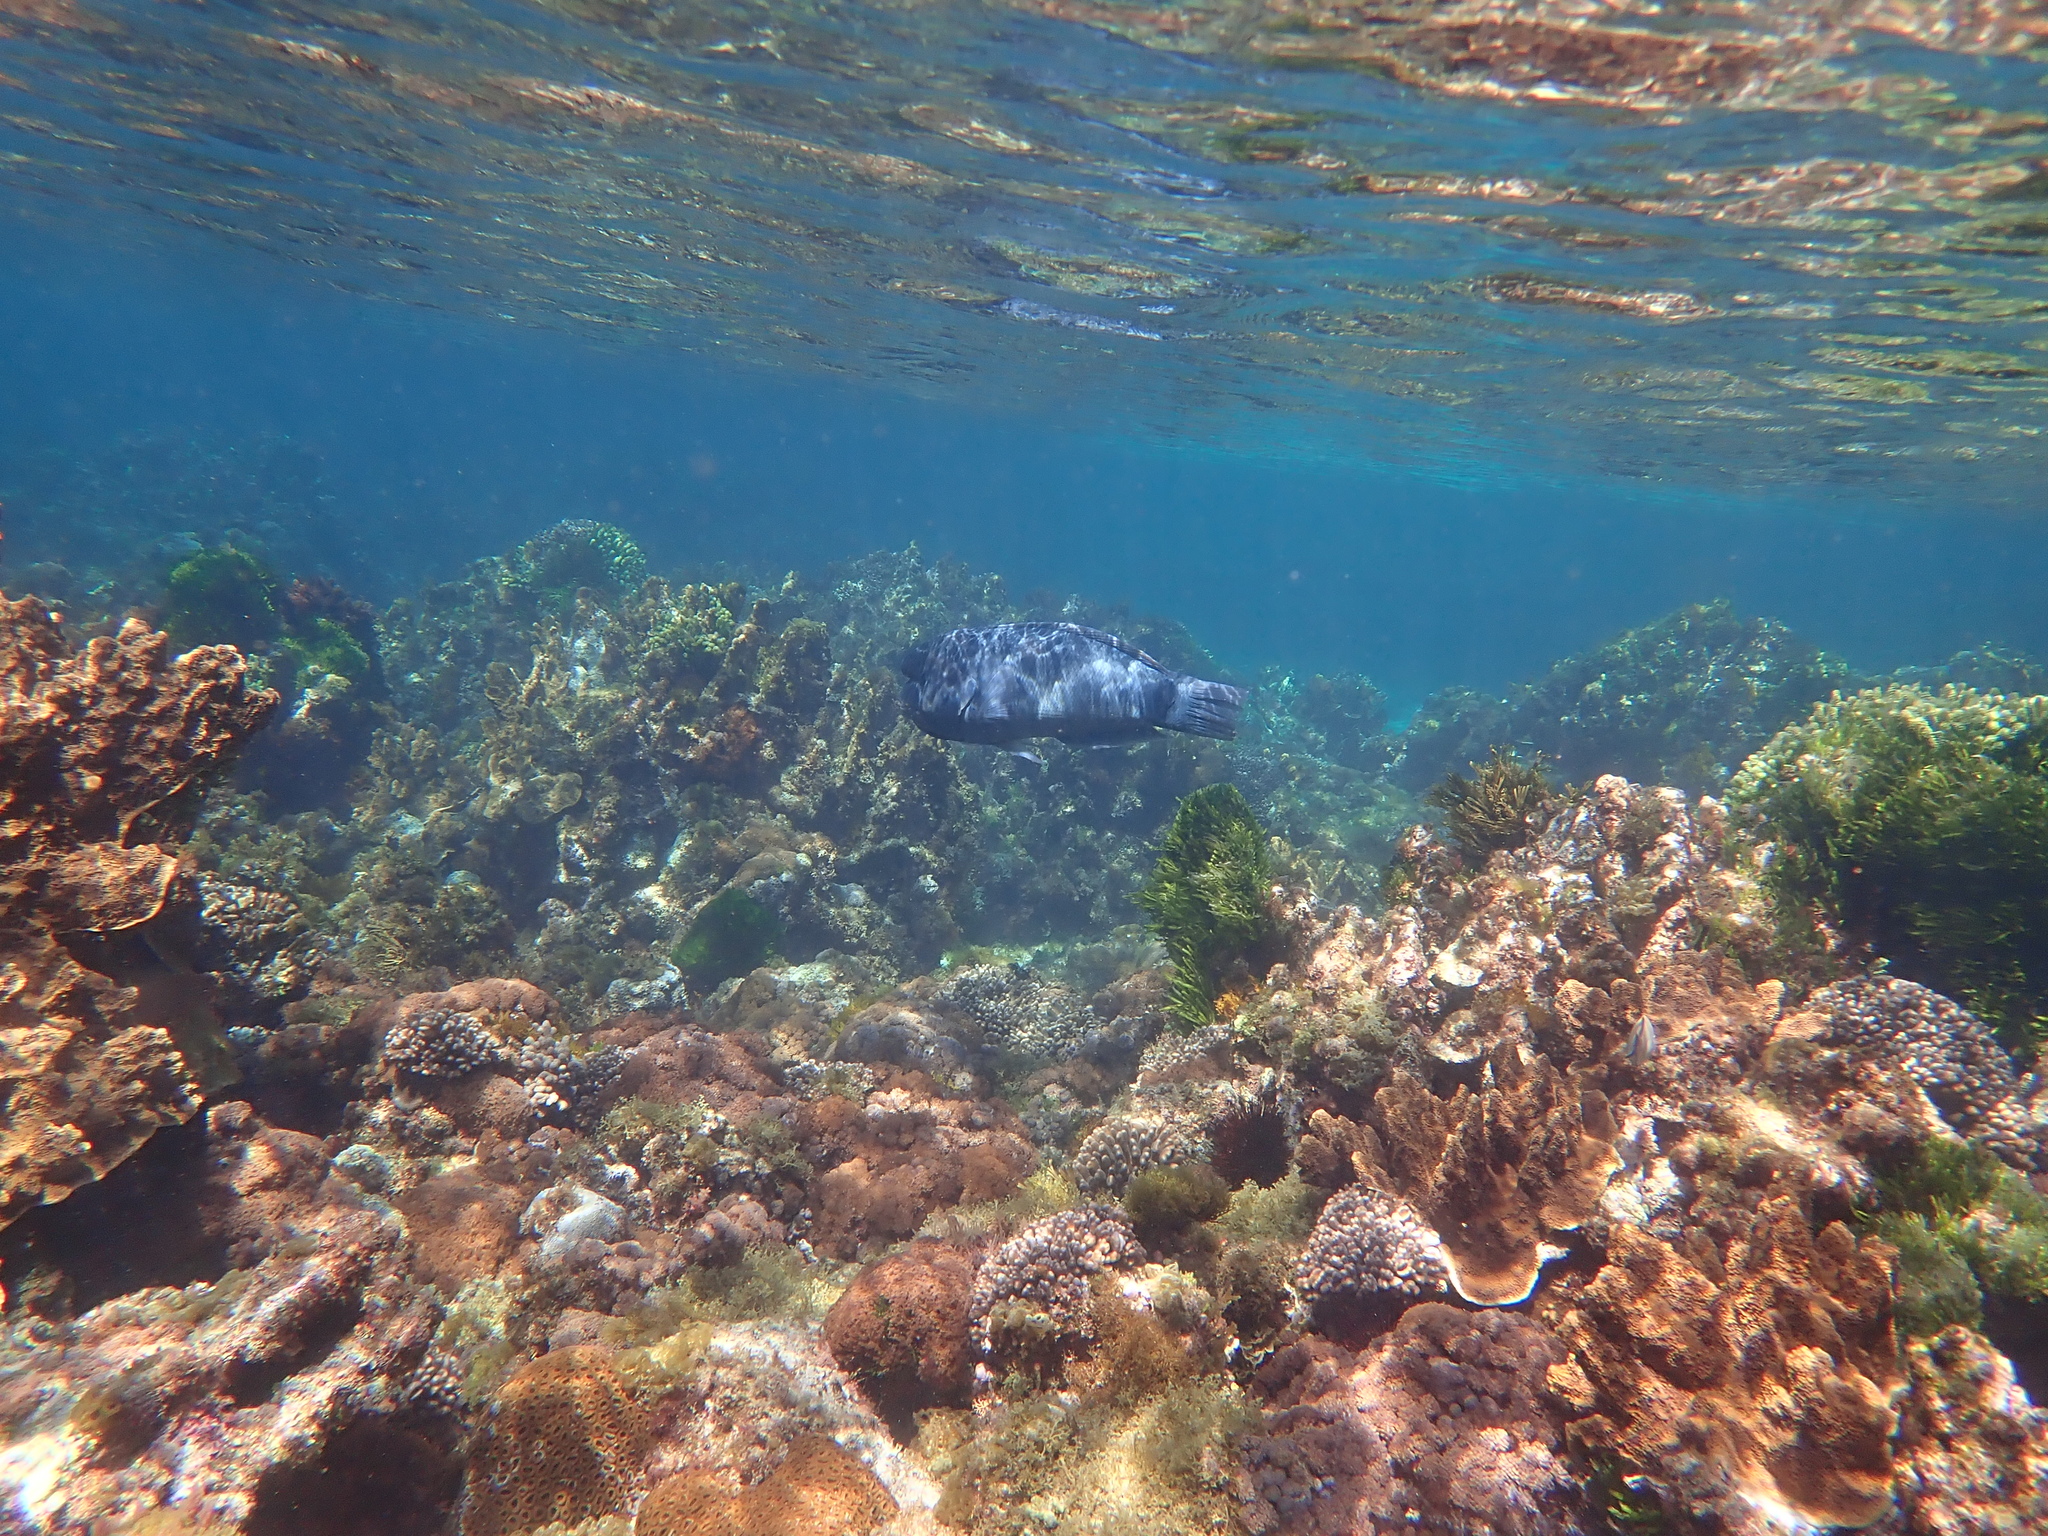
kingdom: Animalia
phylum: Chordata
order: Perciformes
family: Labridae
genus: Coris
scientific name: Coris bulbifrons
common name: Doubleheader
